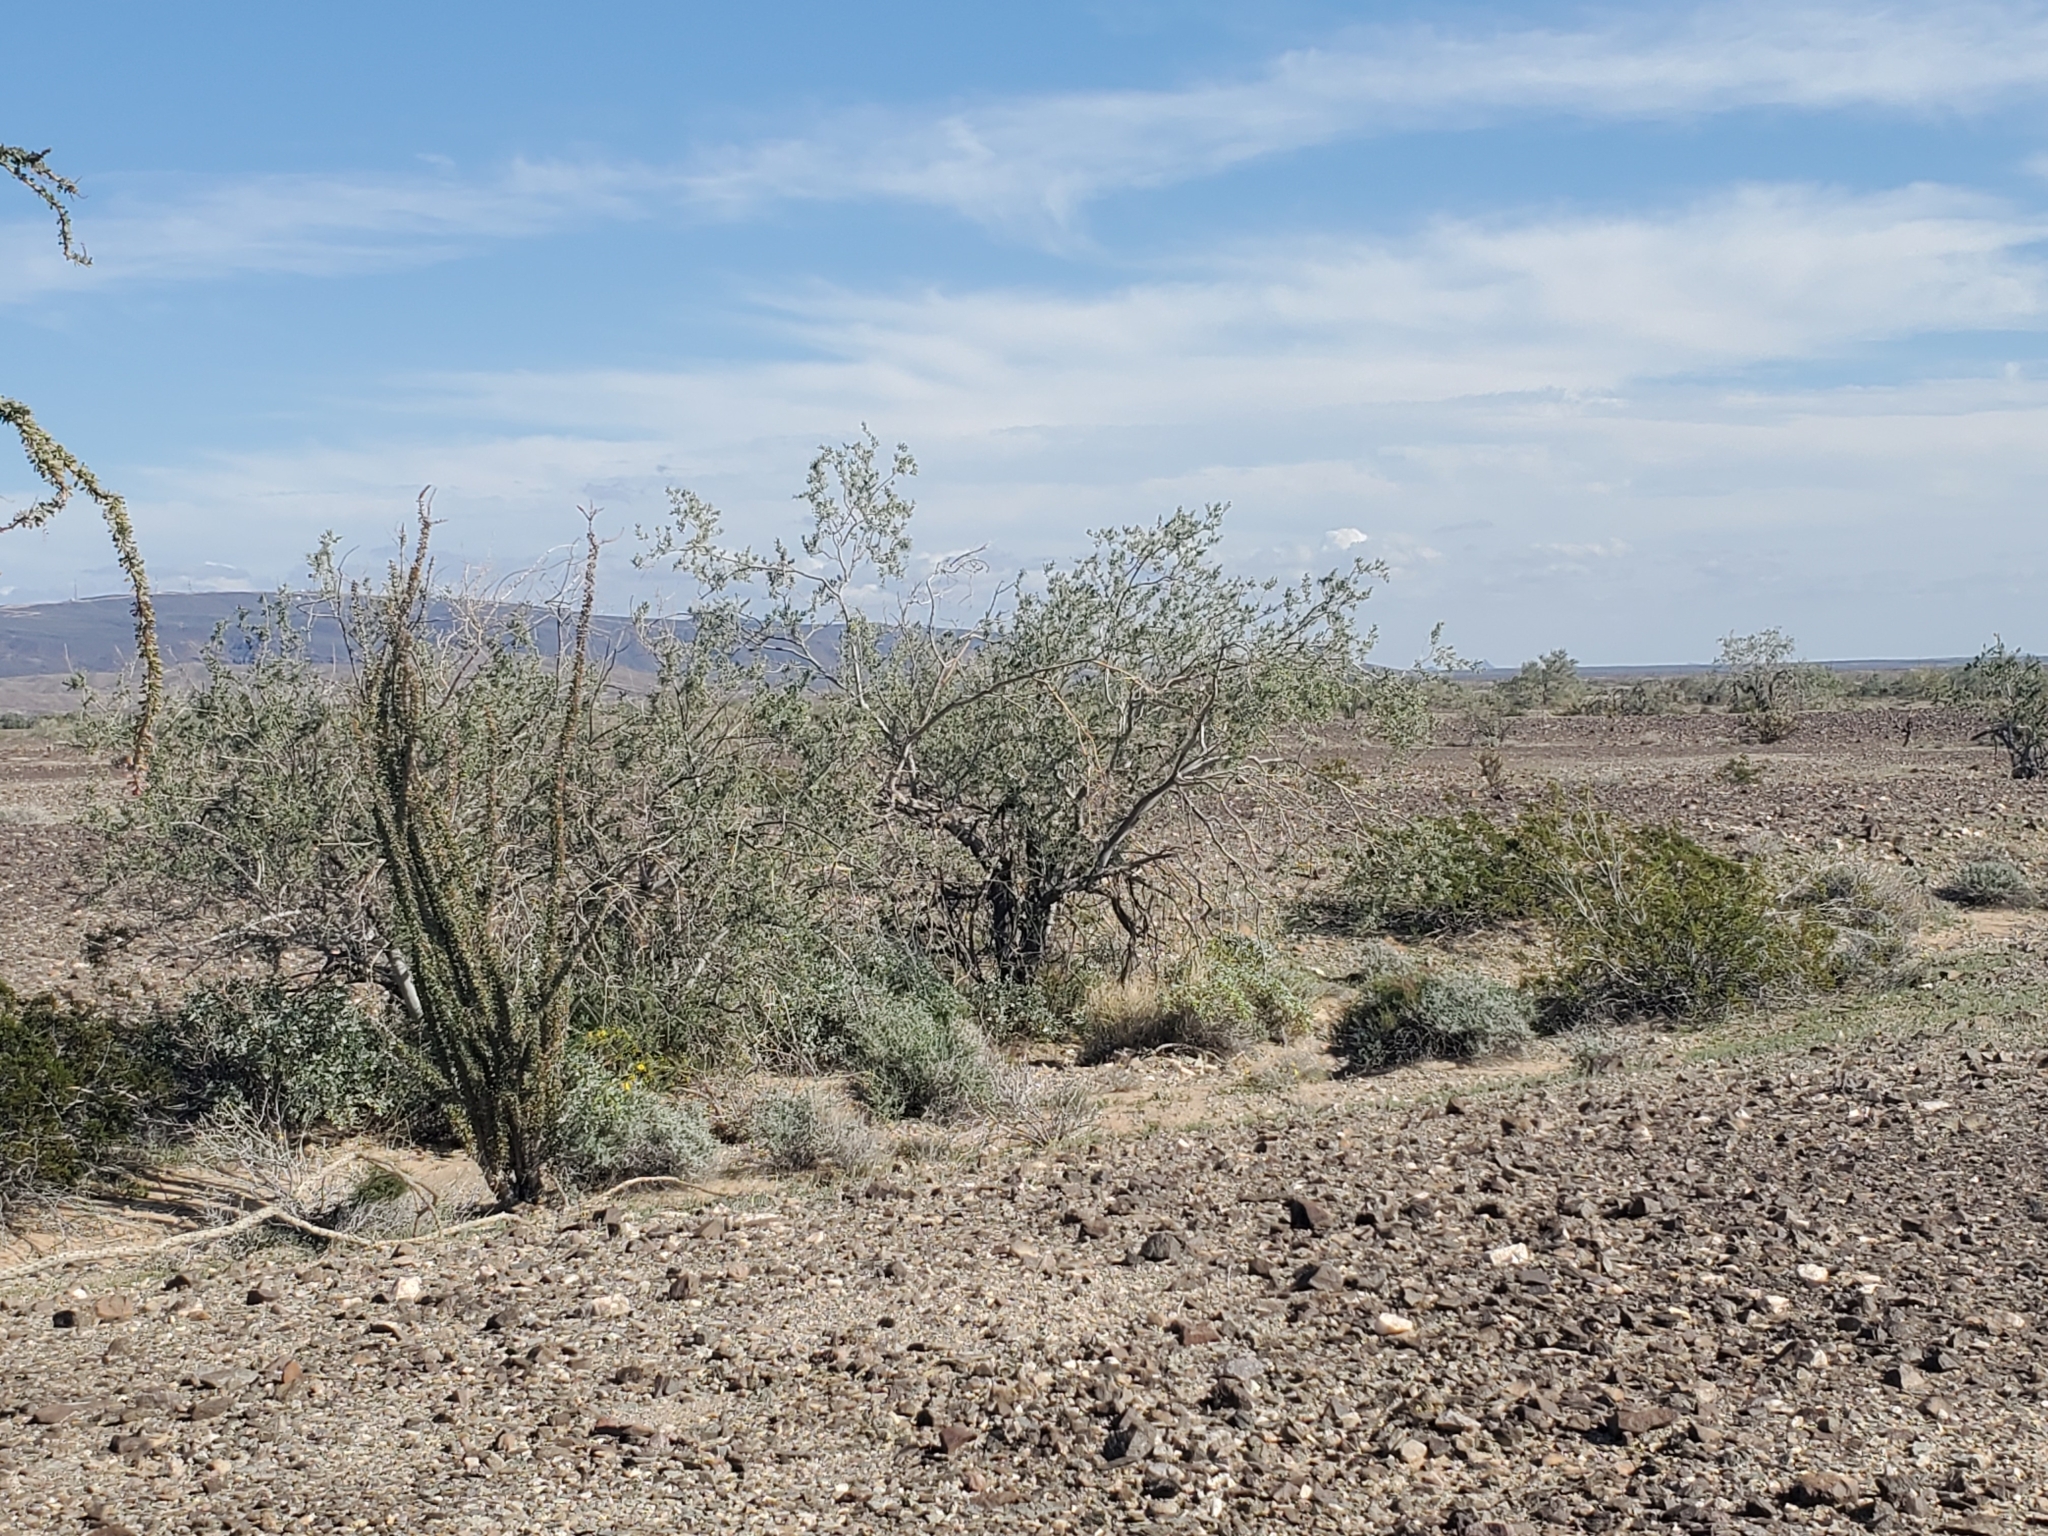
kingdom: Plantae
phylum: Tracheophyta
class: Magnoliopsida
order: Fabales
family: Fabaceae
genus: Olneya
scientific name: Olneya tesota
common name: Desert ironwood
